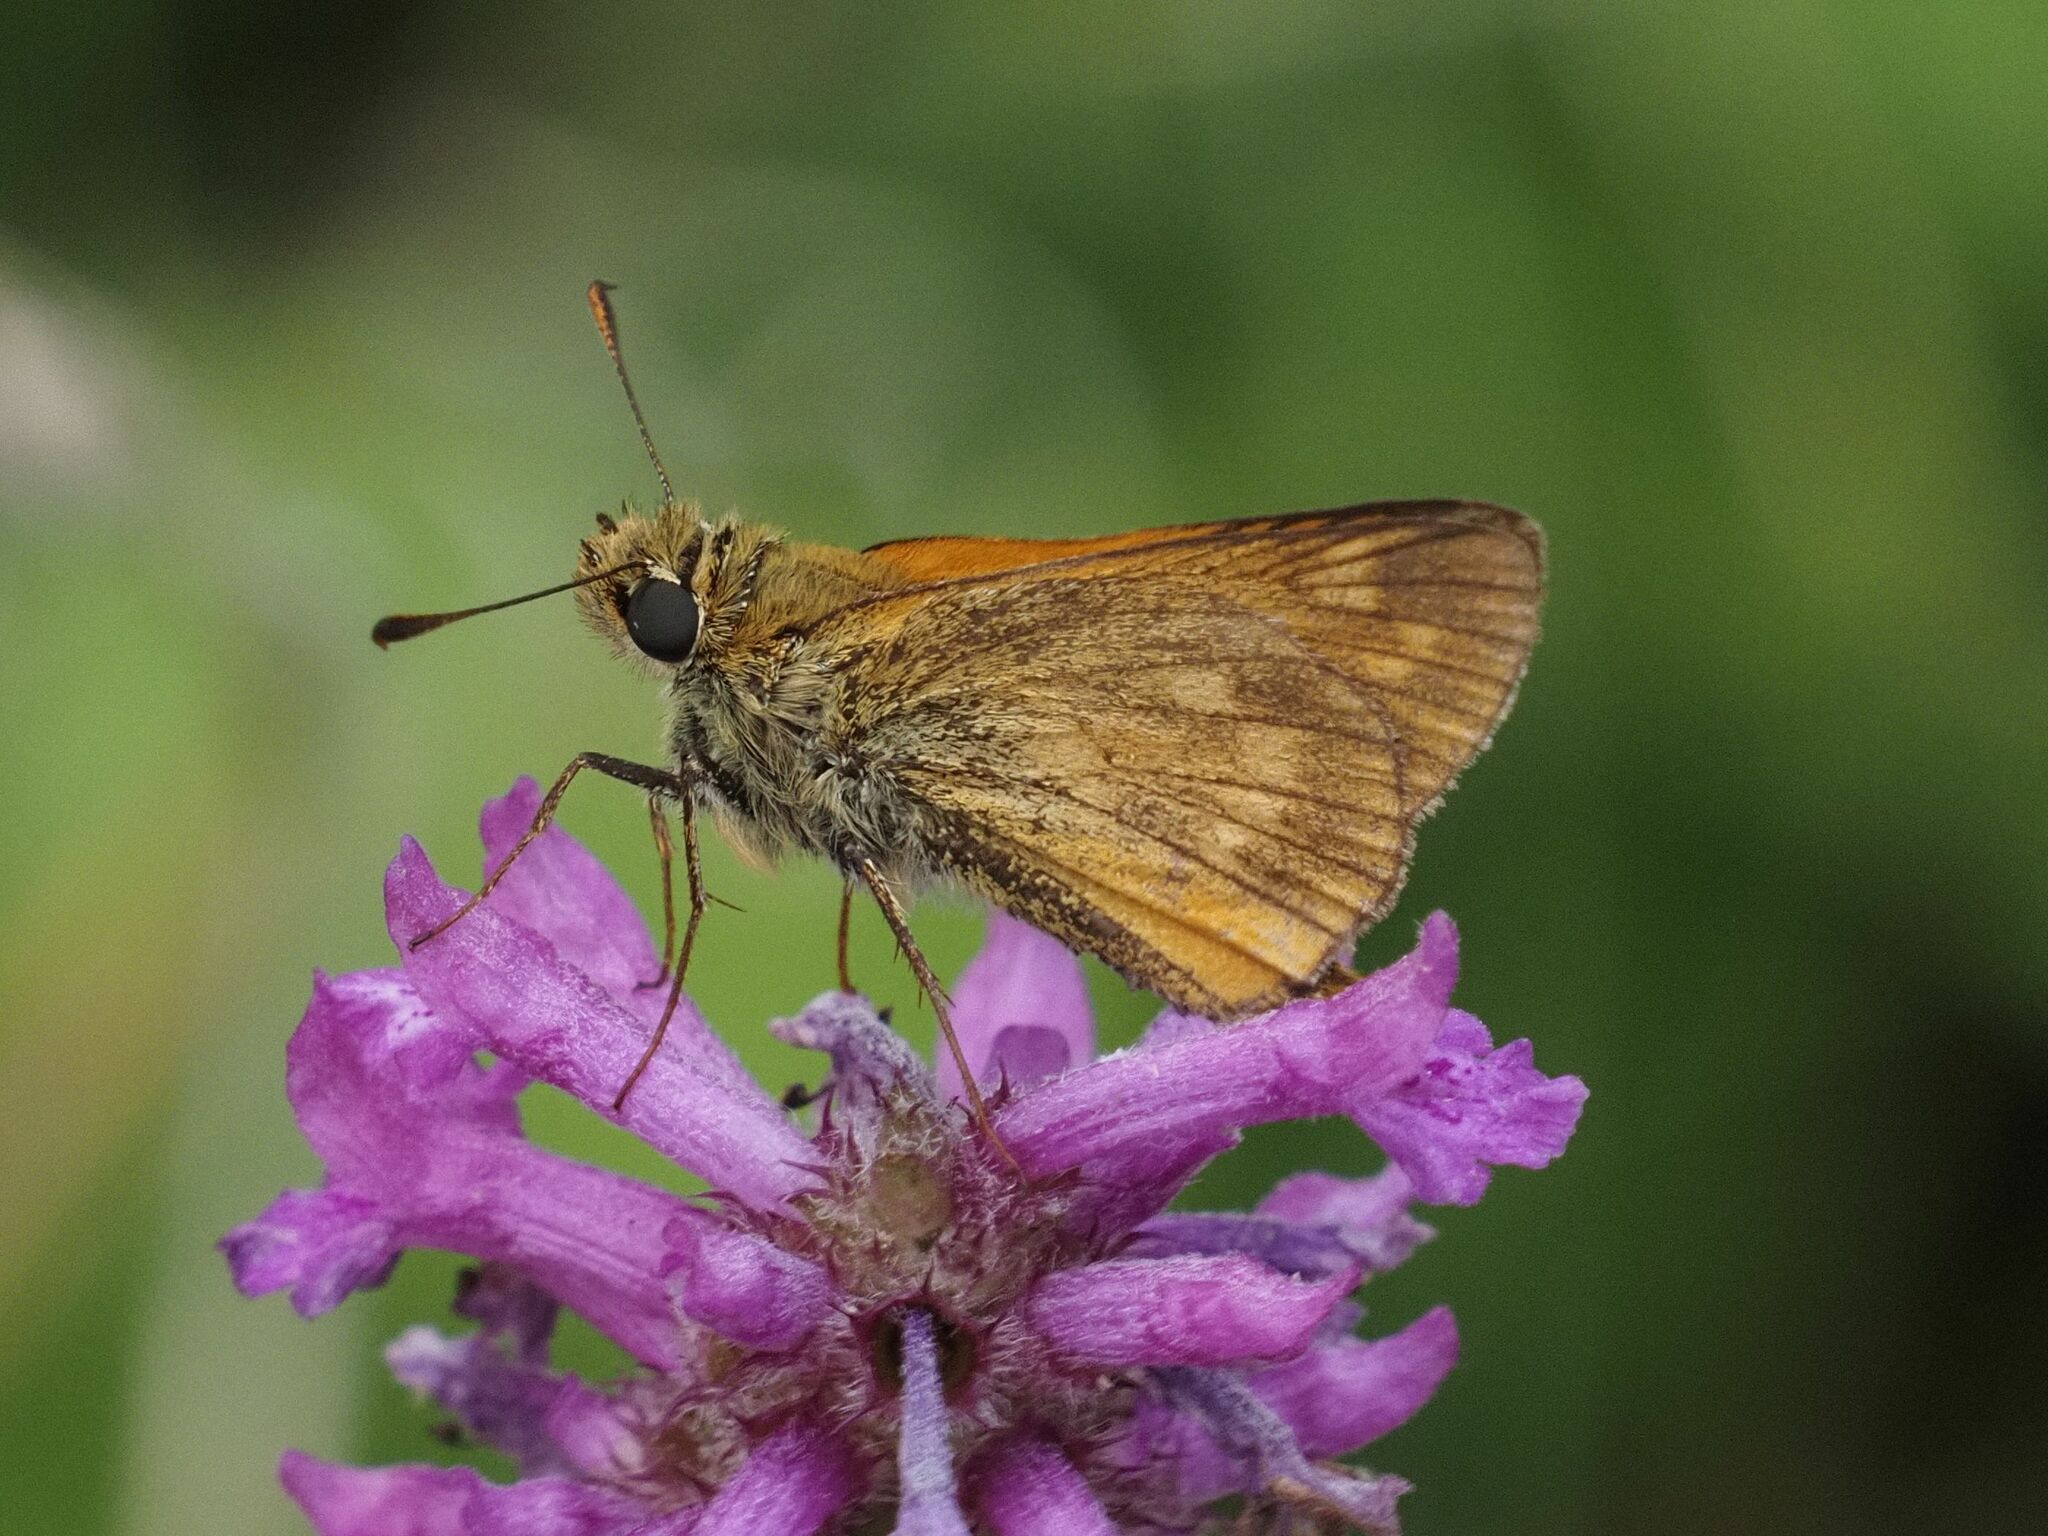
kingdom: Animalia
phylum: Arthropoda
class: Insecta
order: Lepidoptera
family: Hesperiidae
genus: Ochlodes
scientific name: Ochlodes venata
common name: Large skipper
